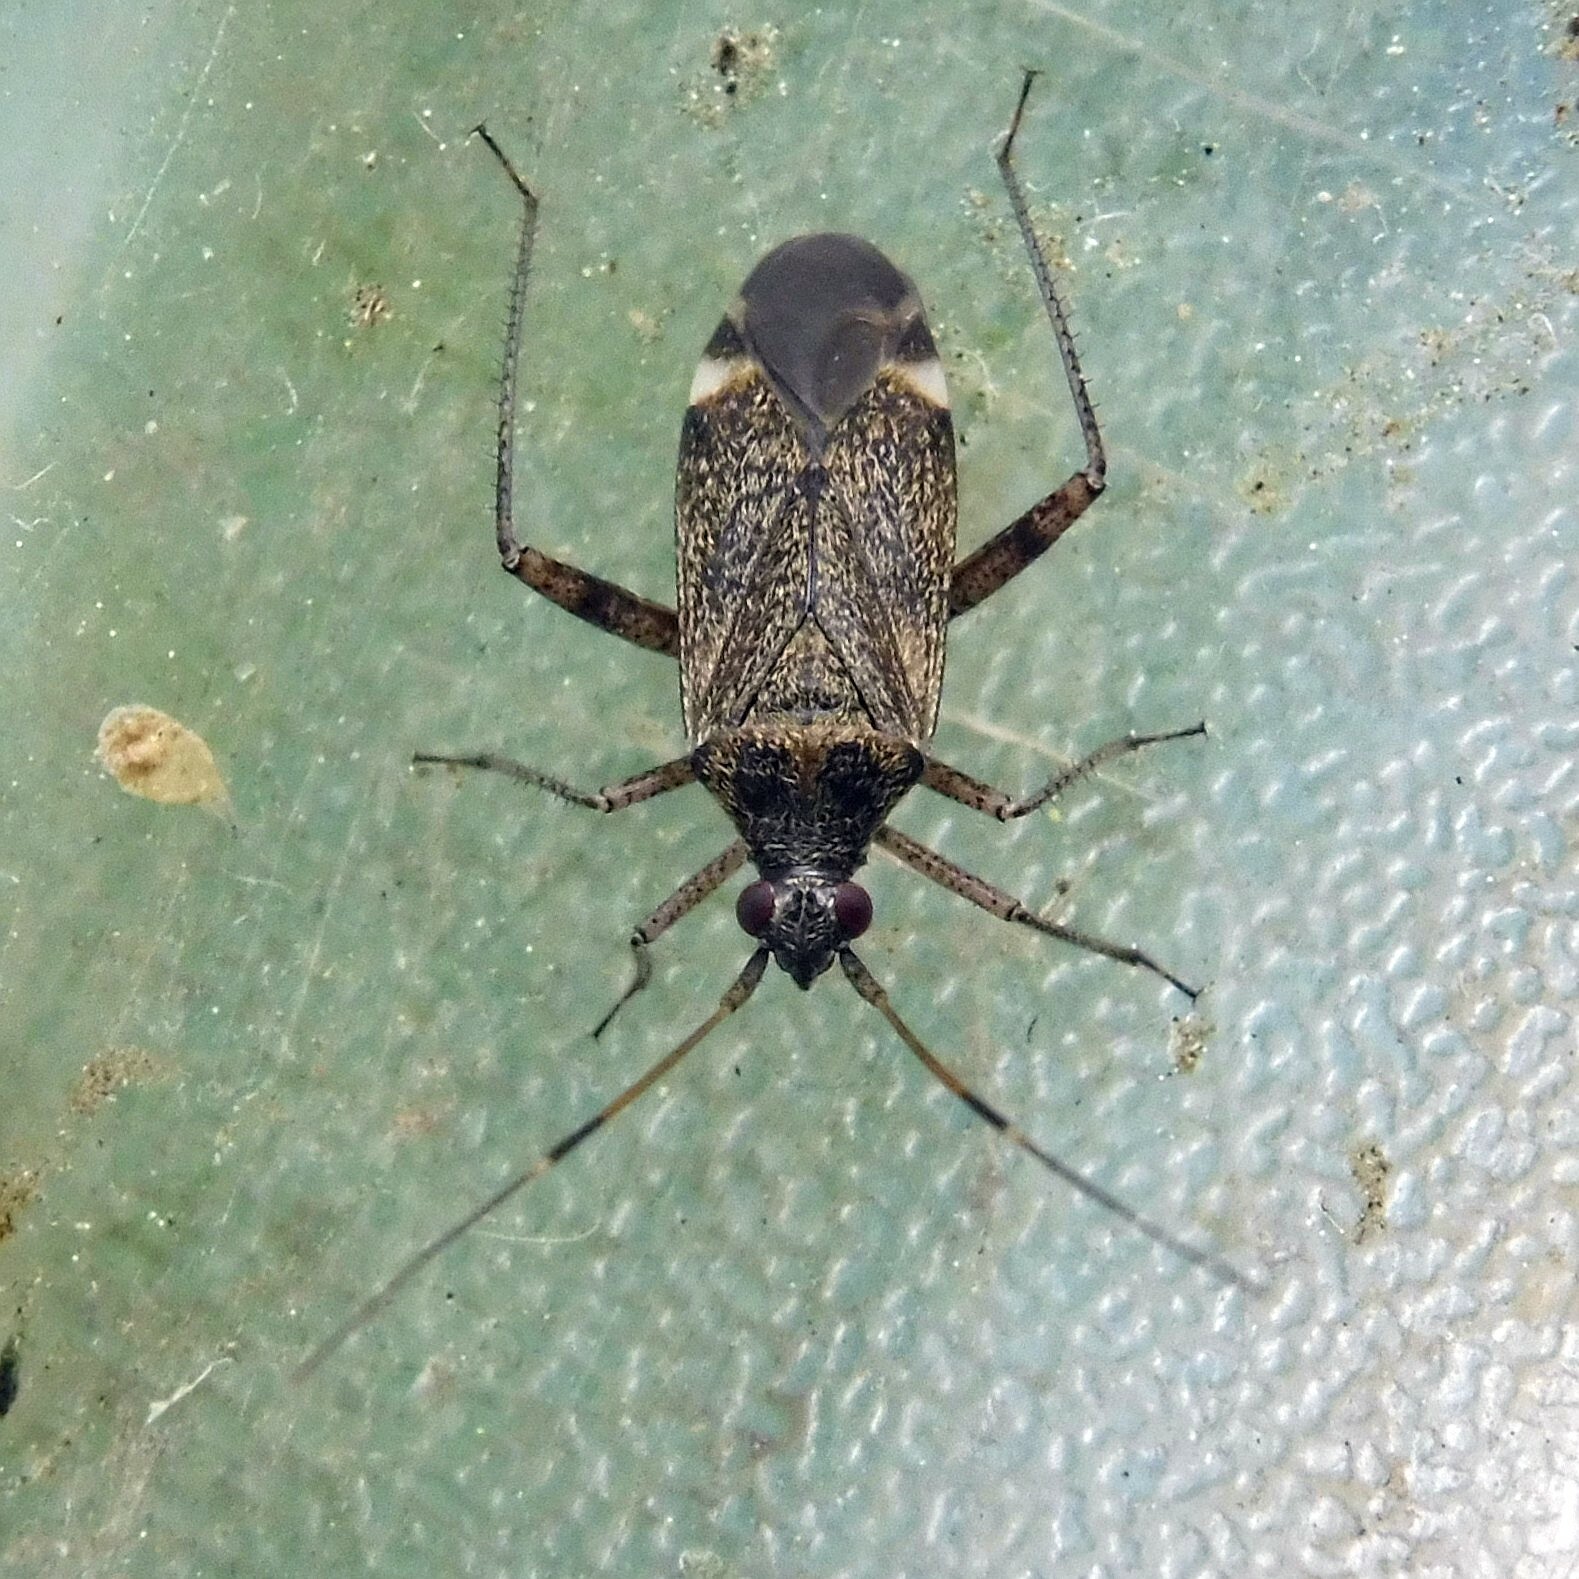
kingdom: Animalia
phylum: Arthropoda
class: Insecta
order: Hemiptera
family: Miridae
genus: Closterotomus
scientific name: Closterotomus fulvomaculatus
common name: Spotted plant bug
